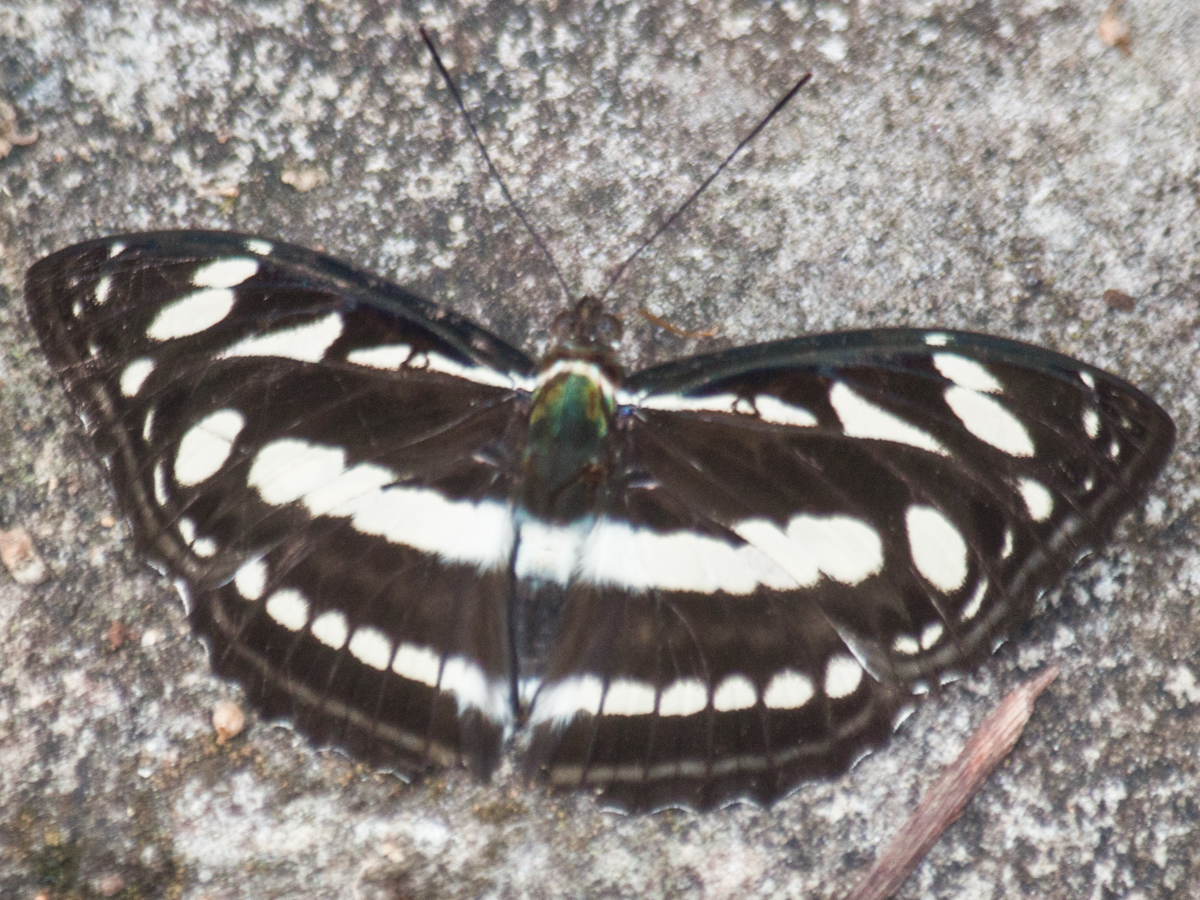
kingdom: Animalia
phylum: Arthropoda
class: Insecta
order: Lepidoptera
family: Nymphalidae
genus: Pantoporia
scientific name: Pantoporia larymna
